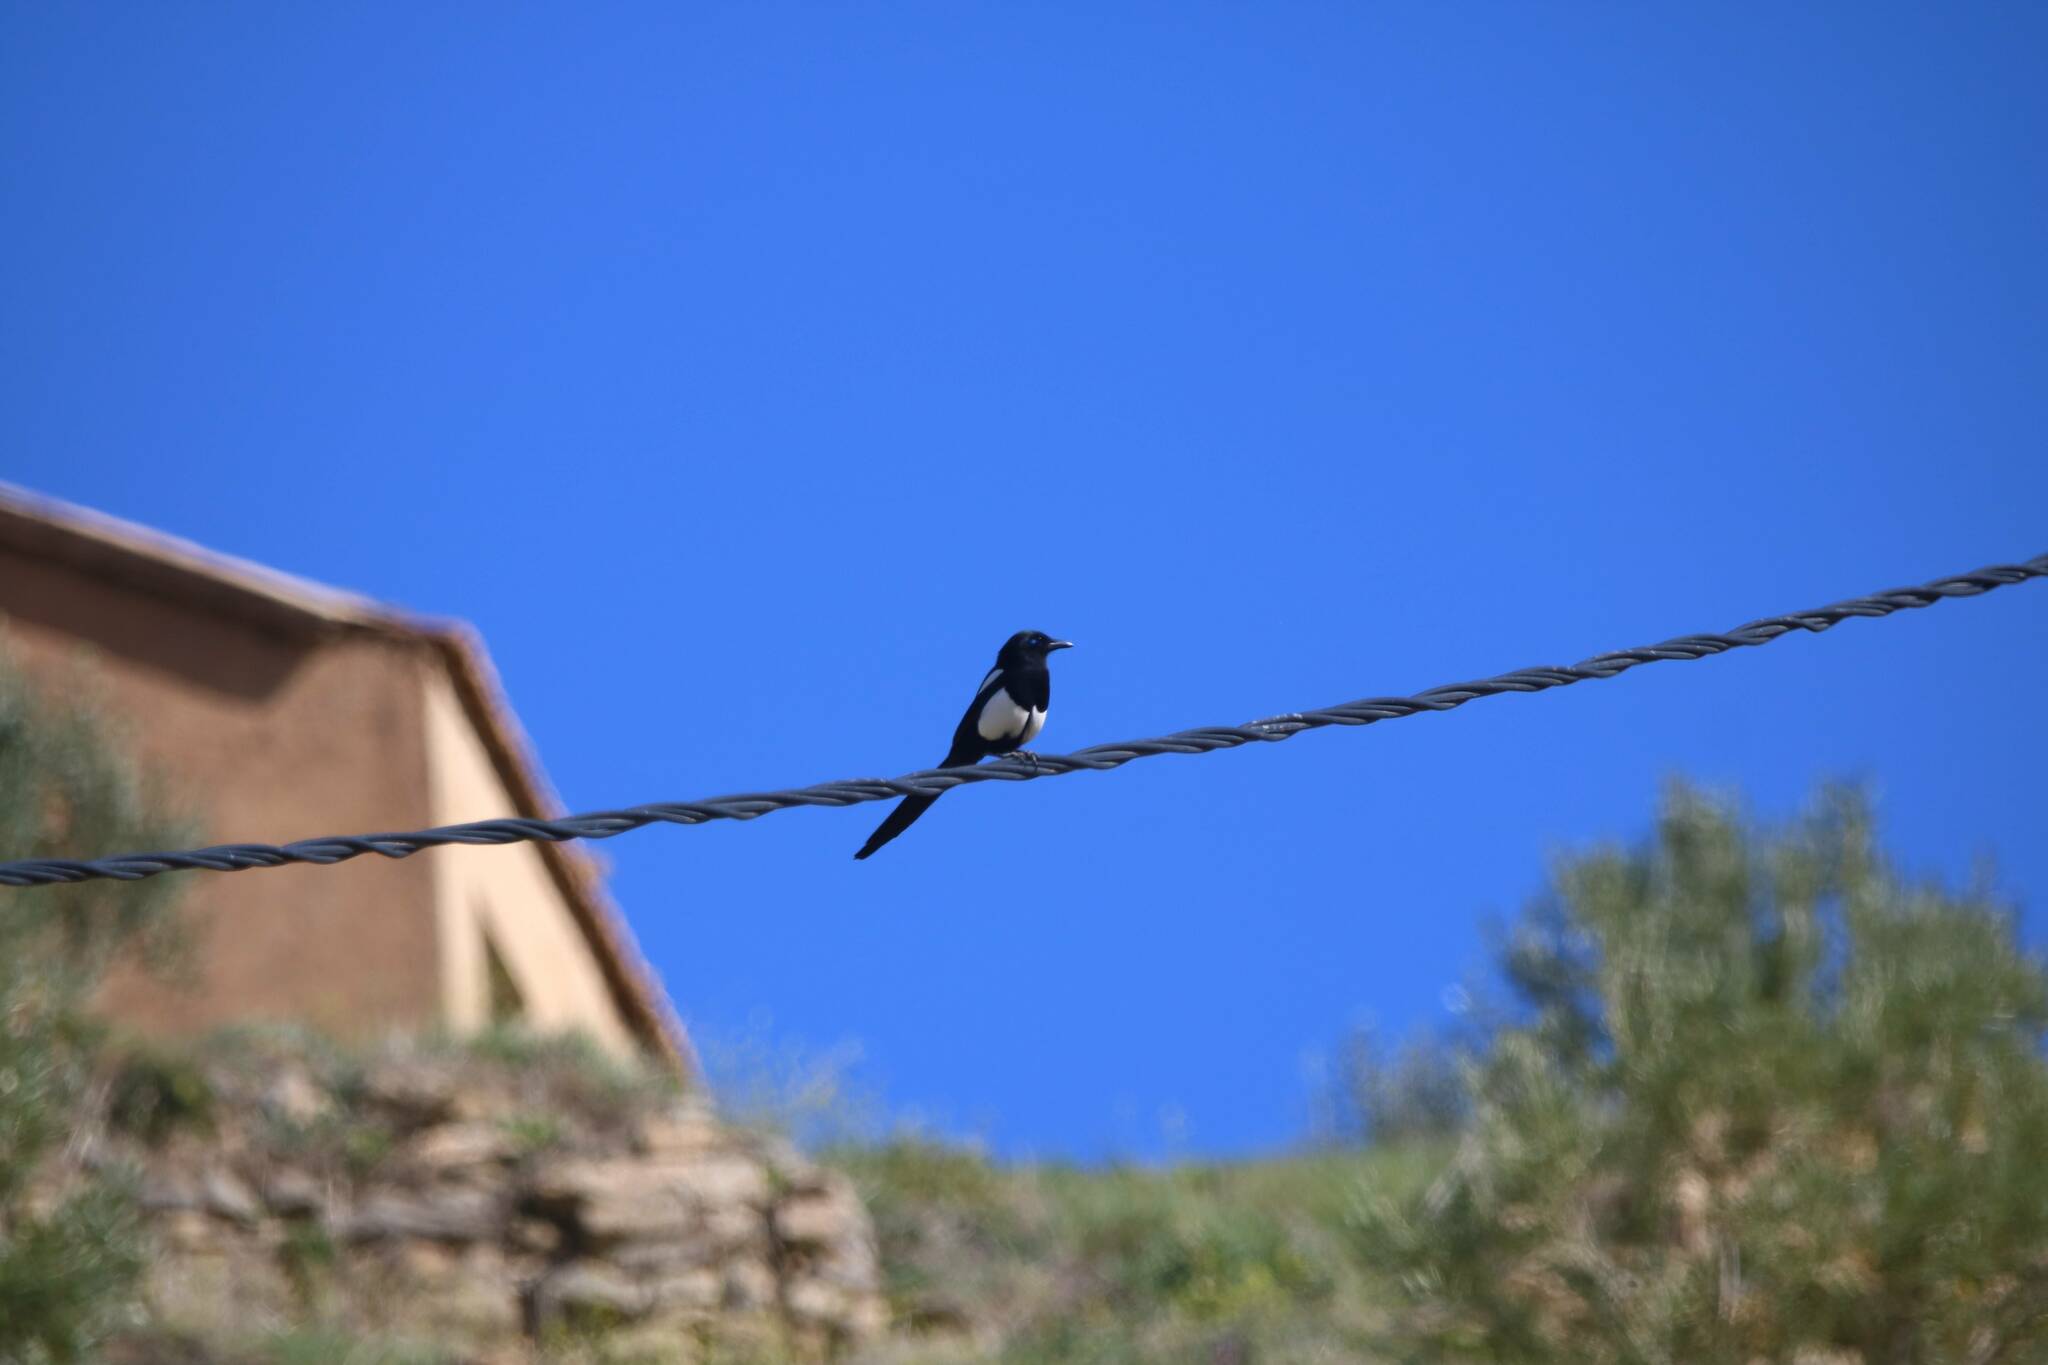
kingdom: Animalia
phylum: Chordata
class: Aves
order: Passeriformes
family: Corvidae
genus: Pica
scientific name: Pica mauritanica
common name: Maghreb magpie
